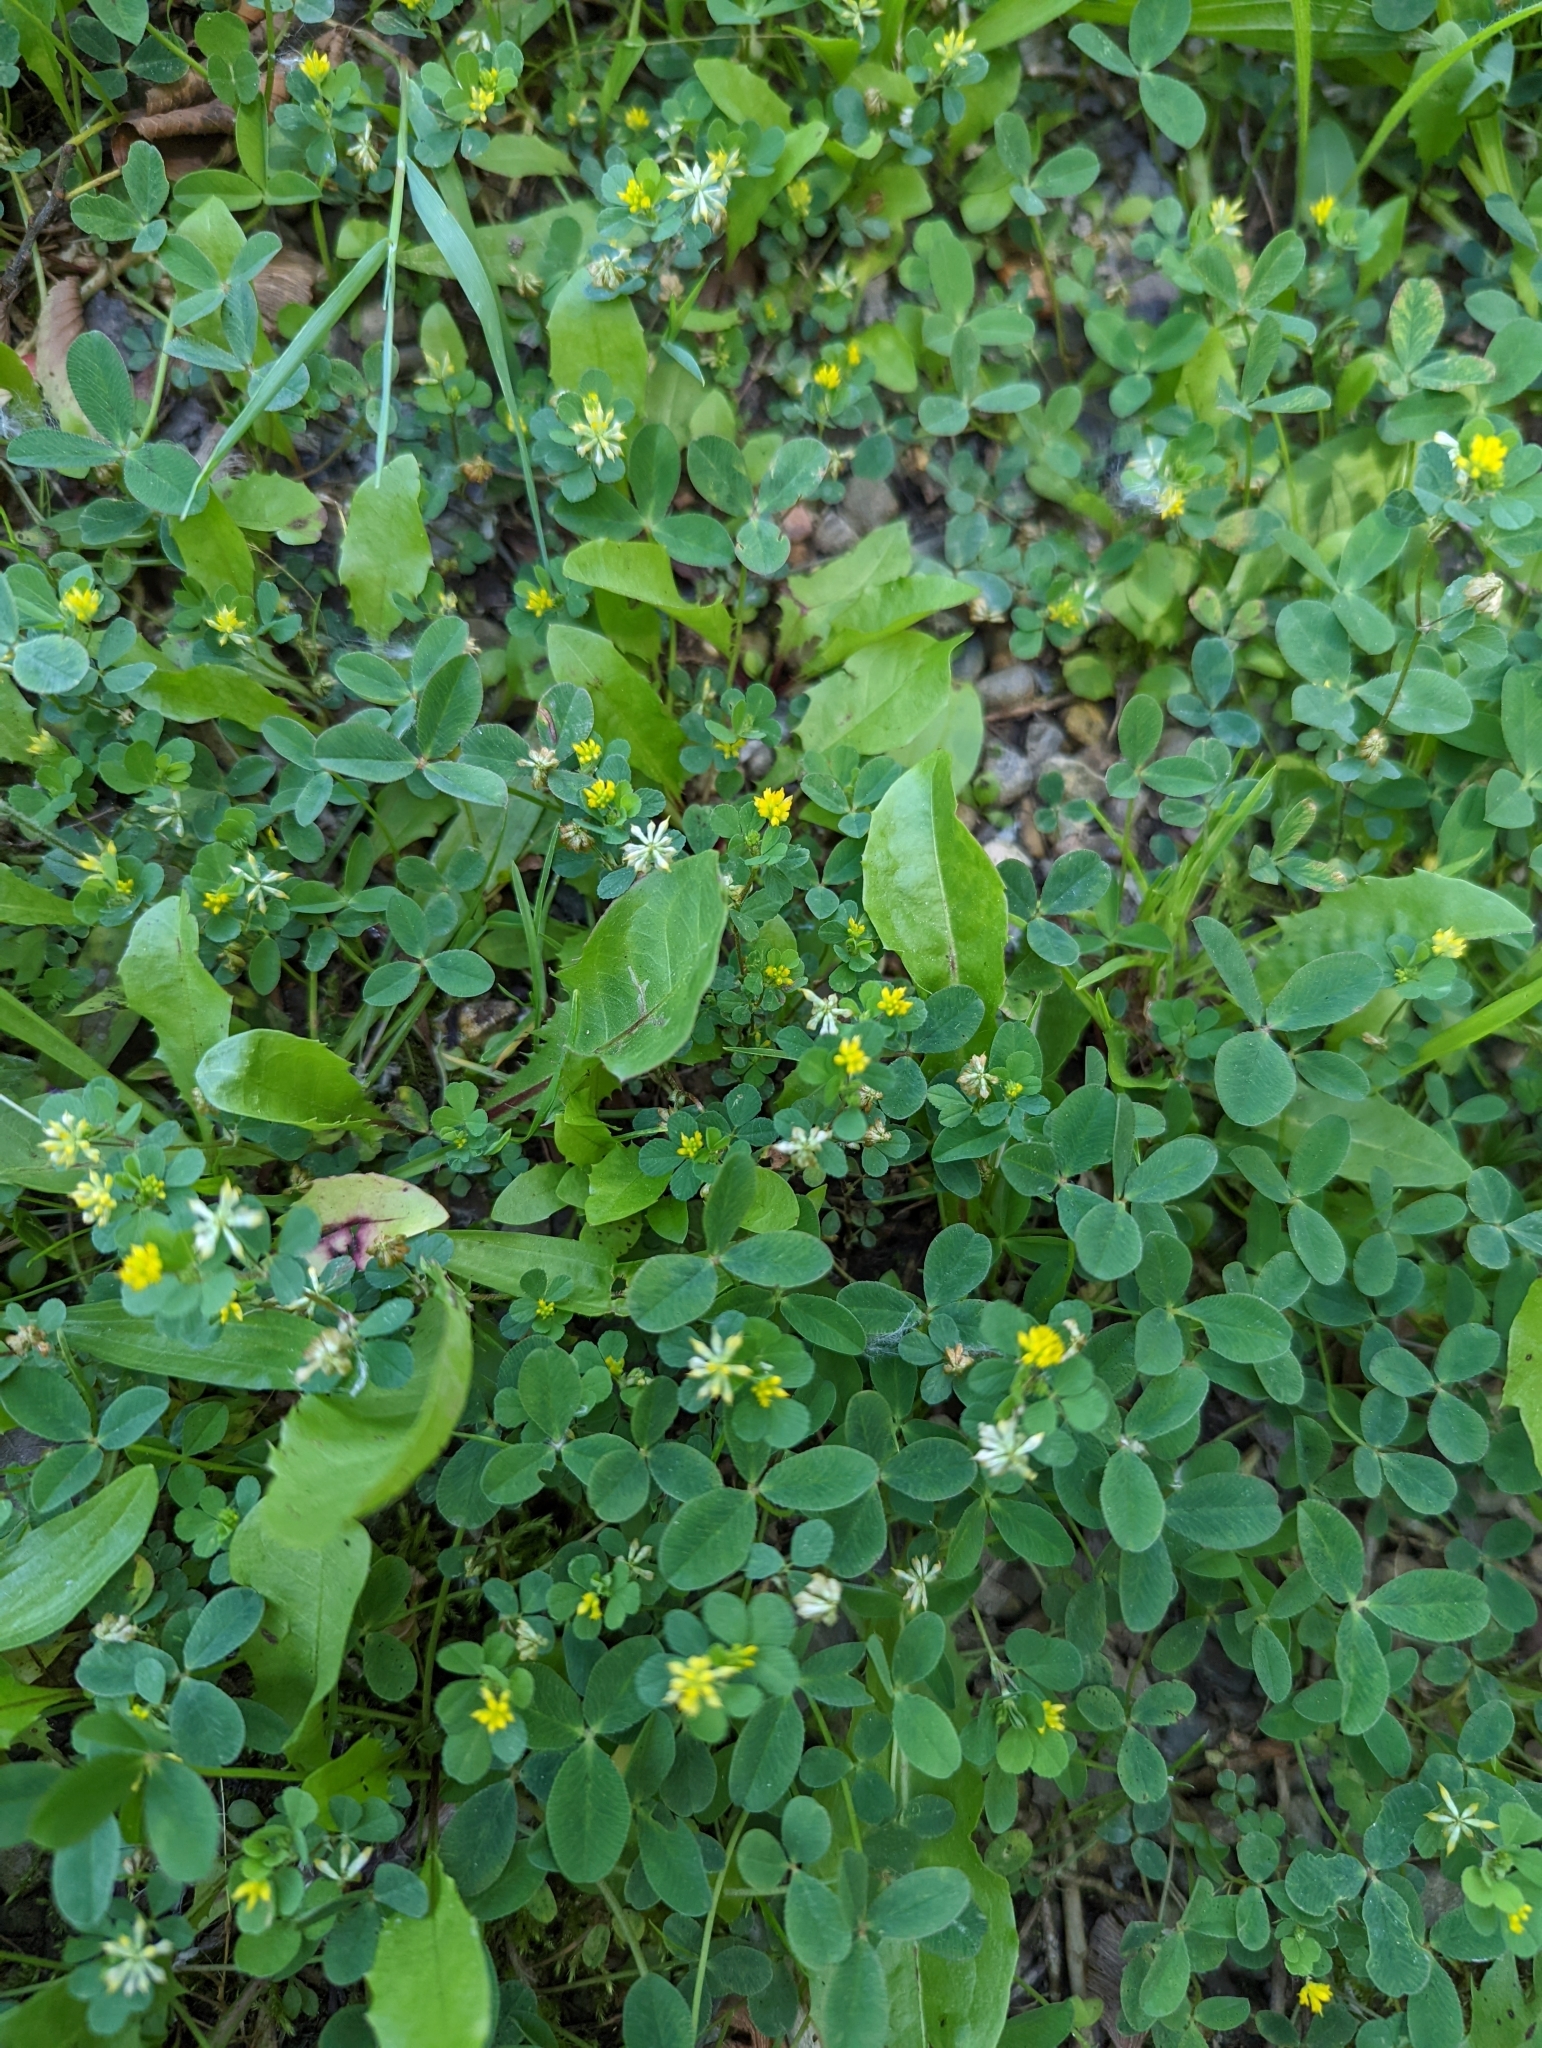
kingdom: Plantae
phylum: Tracheophyta
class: Magnoliopsida
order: Fabales
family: Fabaceae
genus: Trifolium
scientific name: Trifolium dubium
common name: Suckling clover
